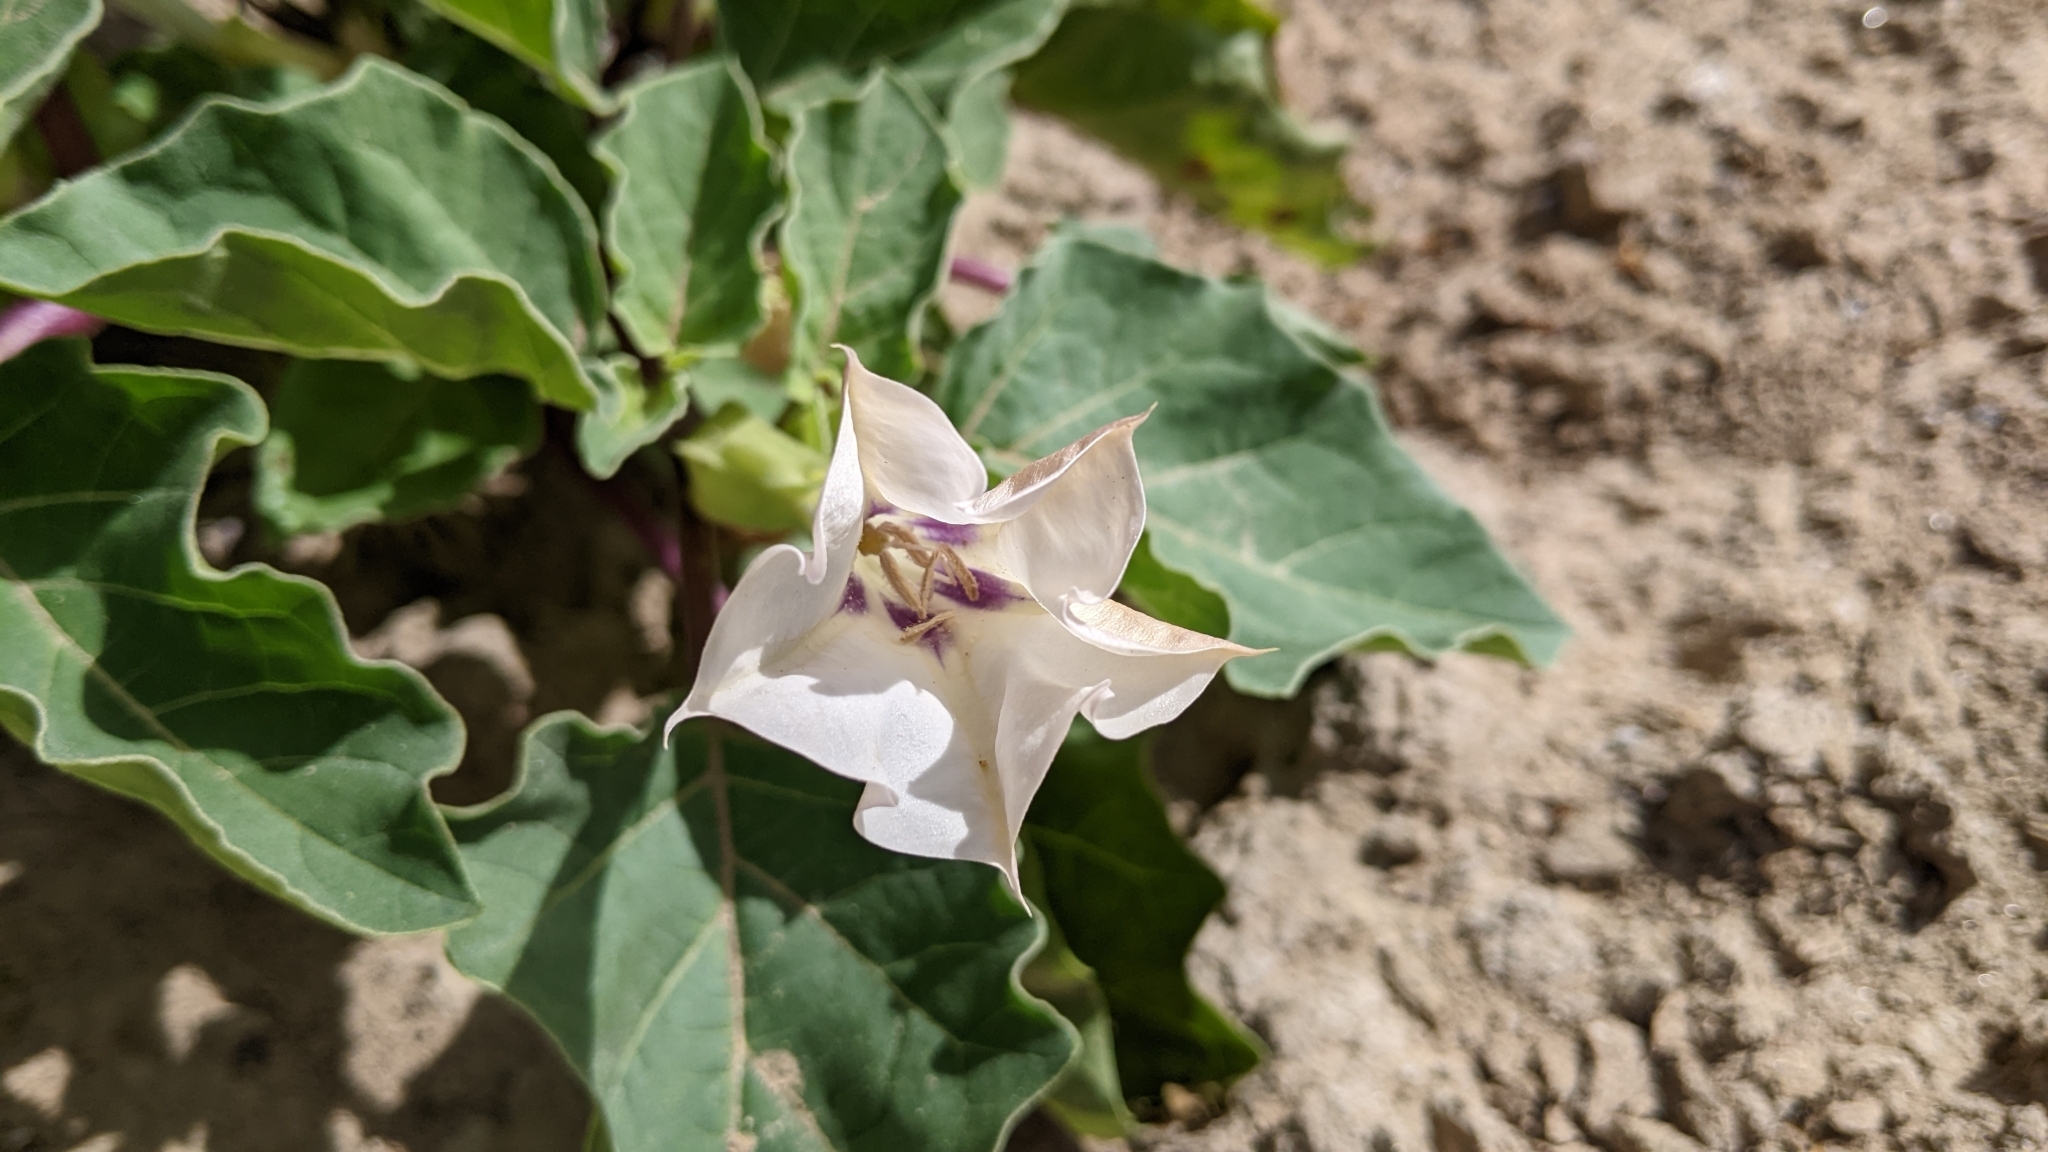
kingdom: Plantae
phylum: Tracheophyta
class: Magnoliopsida
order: Solanales
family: Solanaceae
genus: Datura
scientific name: Datura discolor
